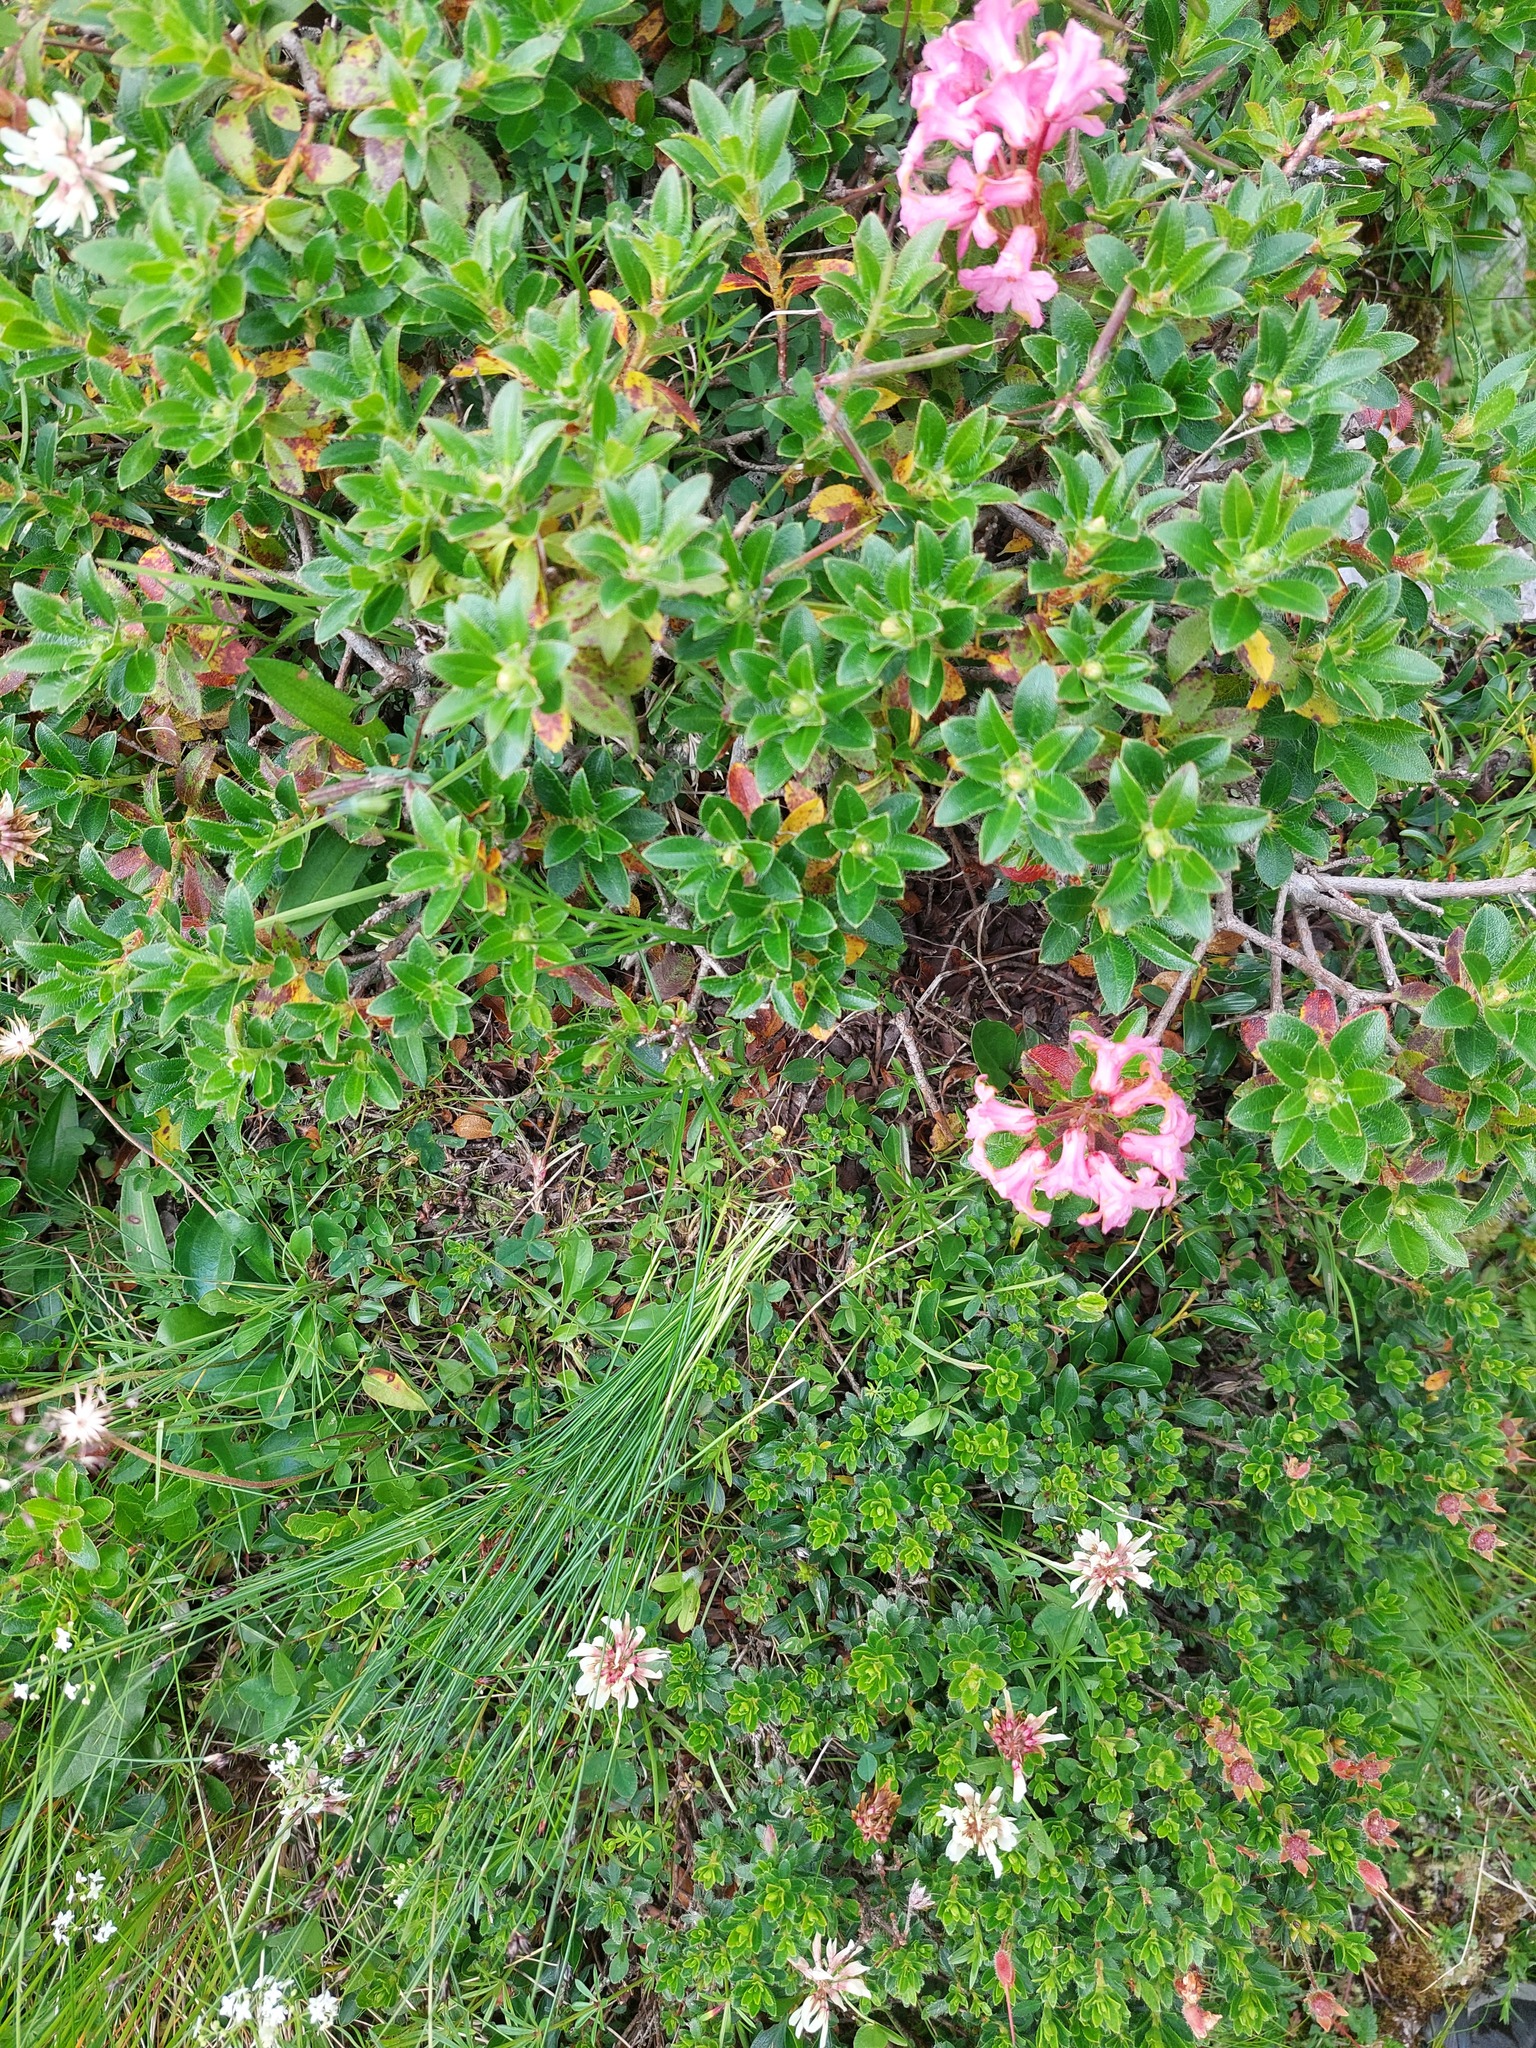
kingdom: Plantae
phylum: Tracheophyta
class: Magnoliopsida
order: Ericales
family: Ericaceae
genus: Rhododendron
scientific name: Rhododendron hirsutum
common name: Hairy alpenrose
